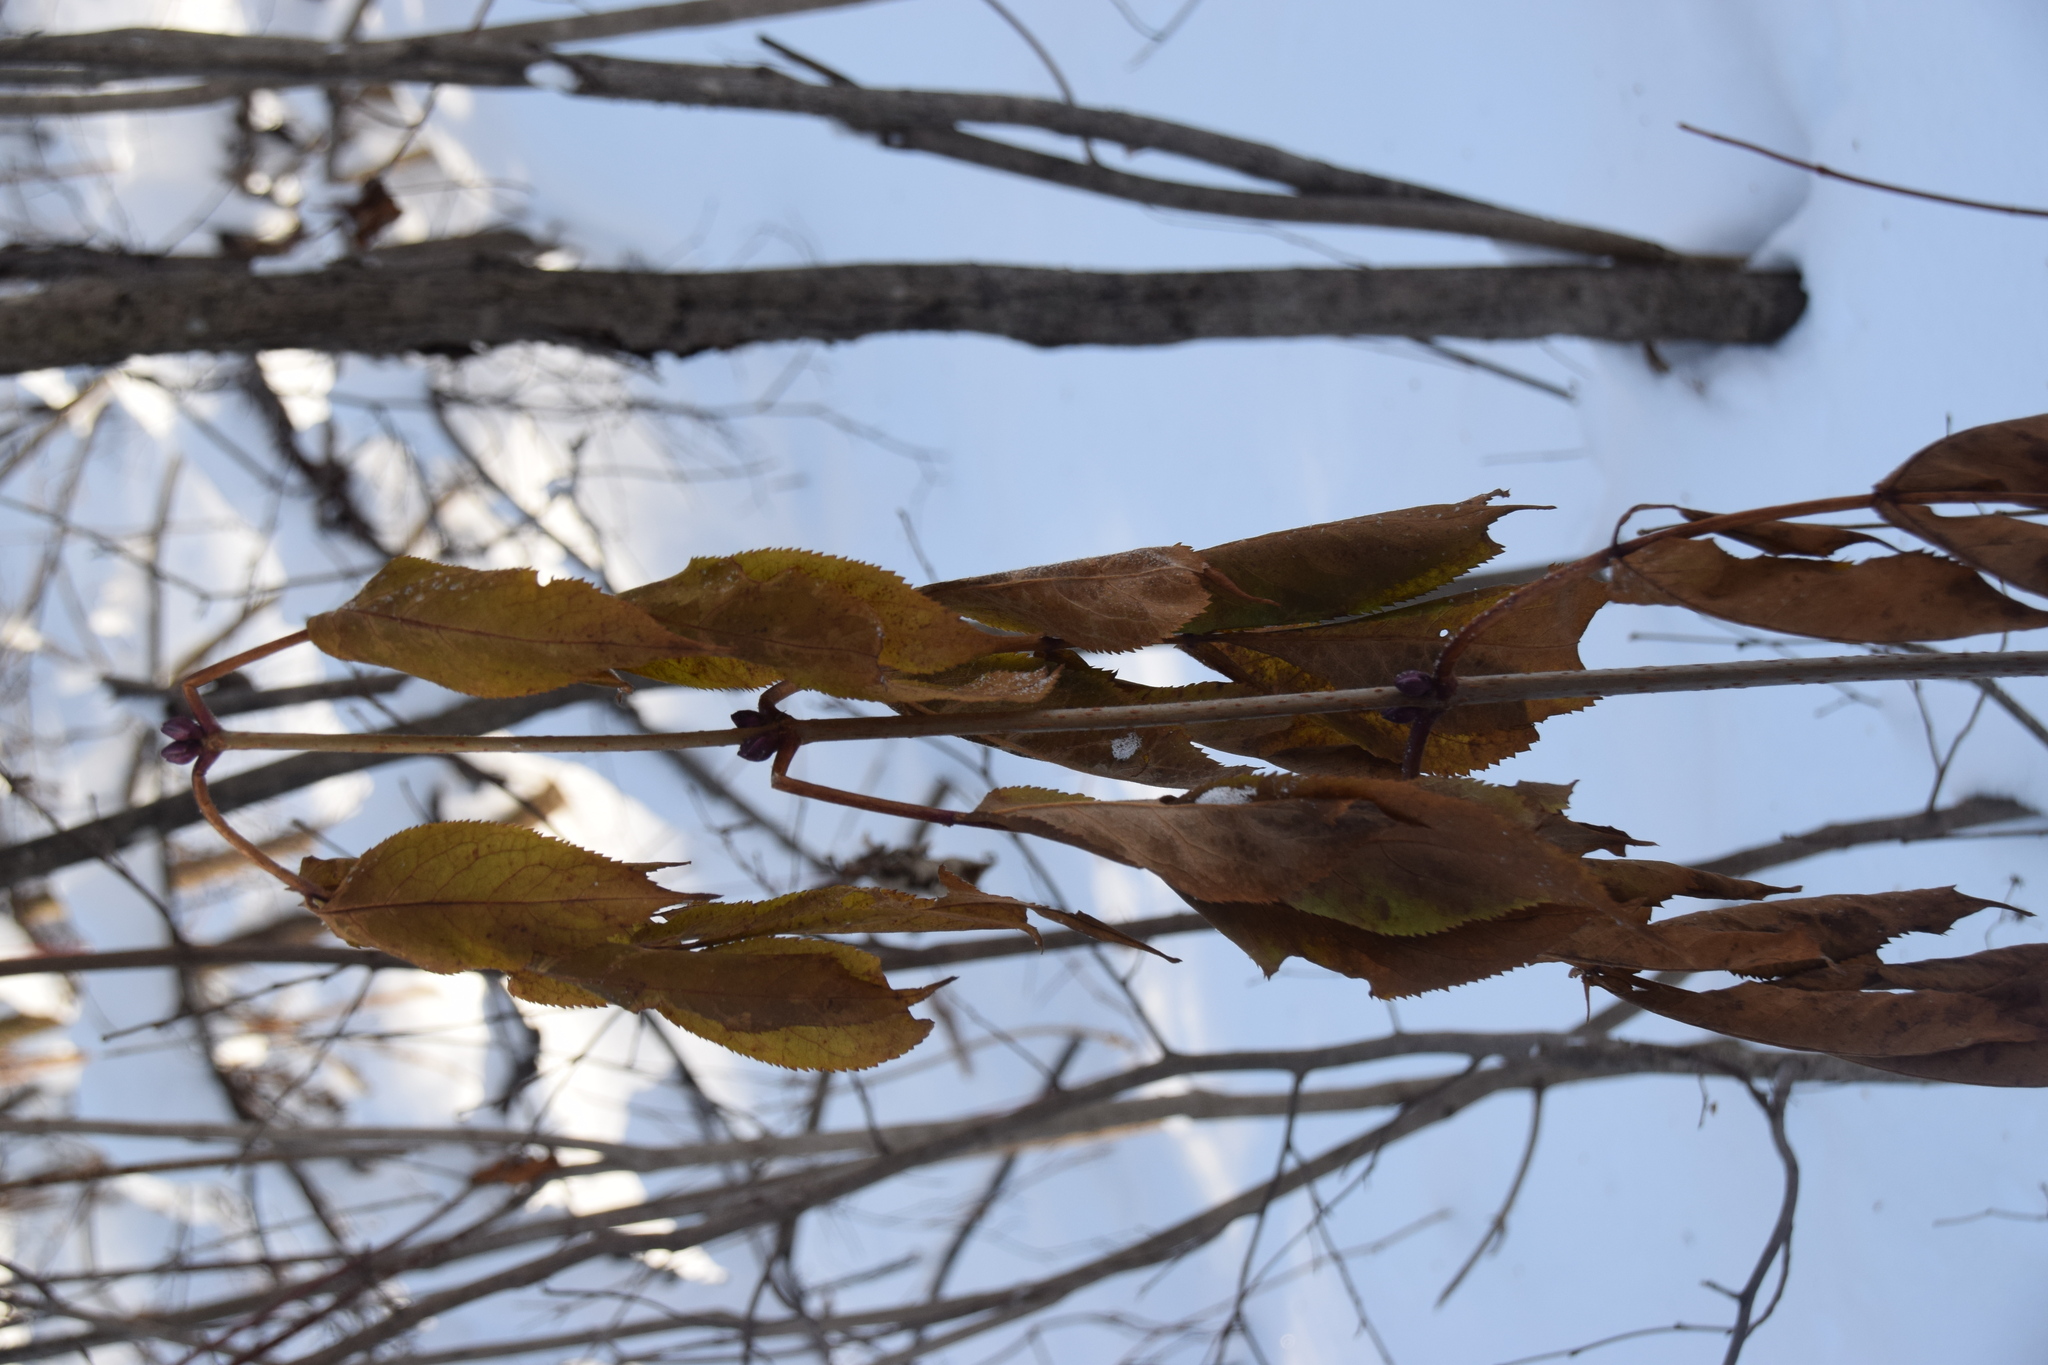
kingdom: Plantae
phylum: Tracheophyta
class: Magnoliopsida
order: Dipsacales
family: Viburnaceae
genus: Sambucus
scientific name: Sambucus racemosa
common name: Red-berried elder
